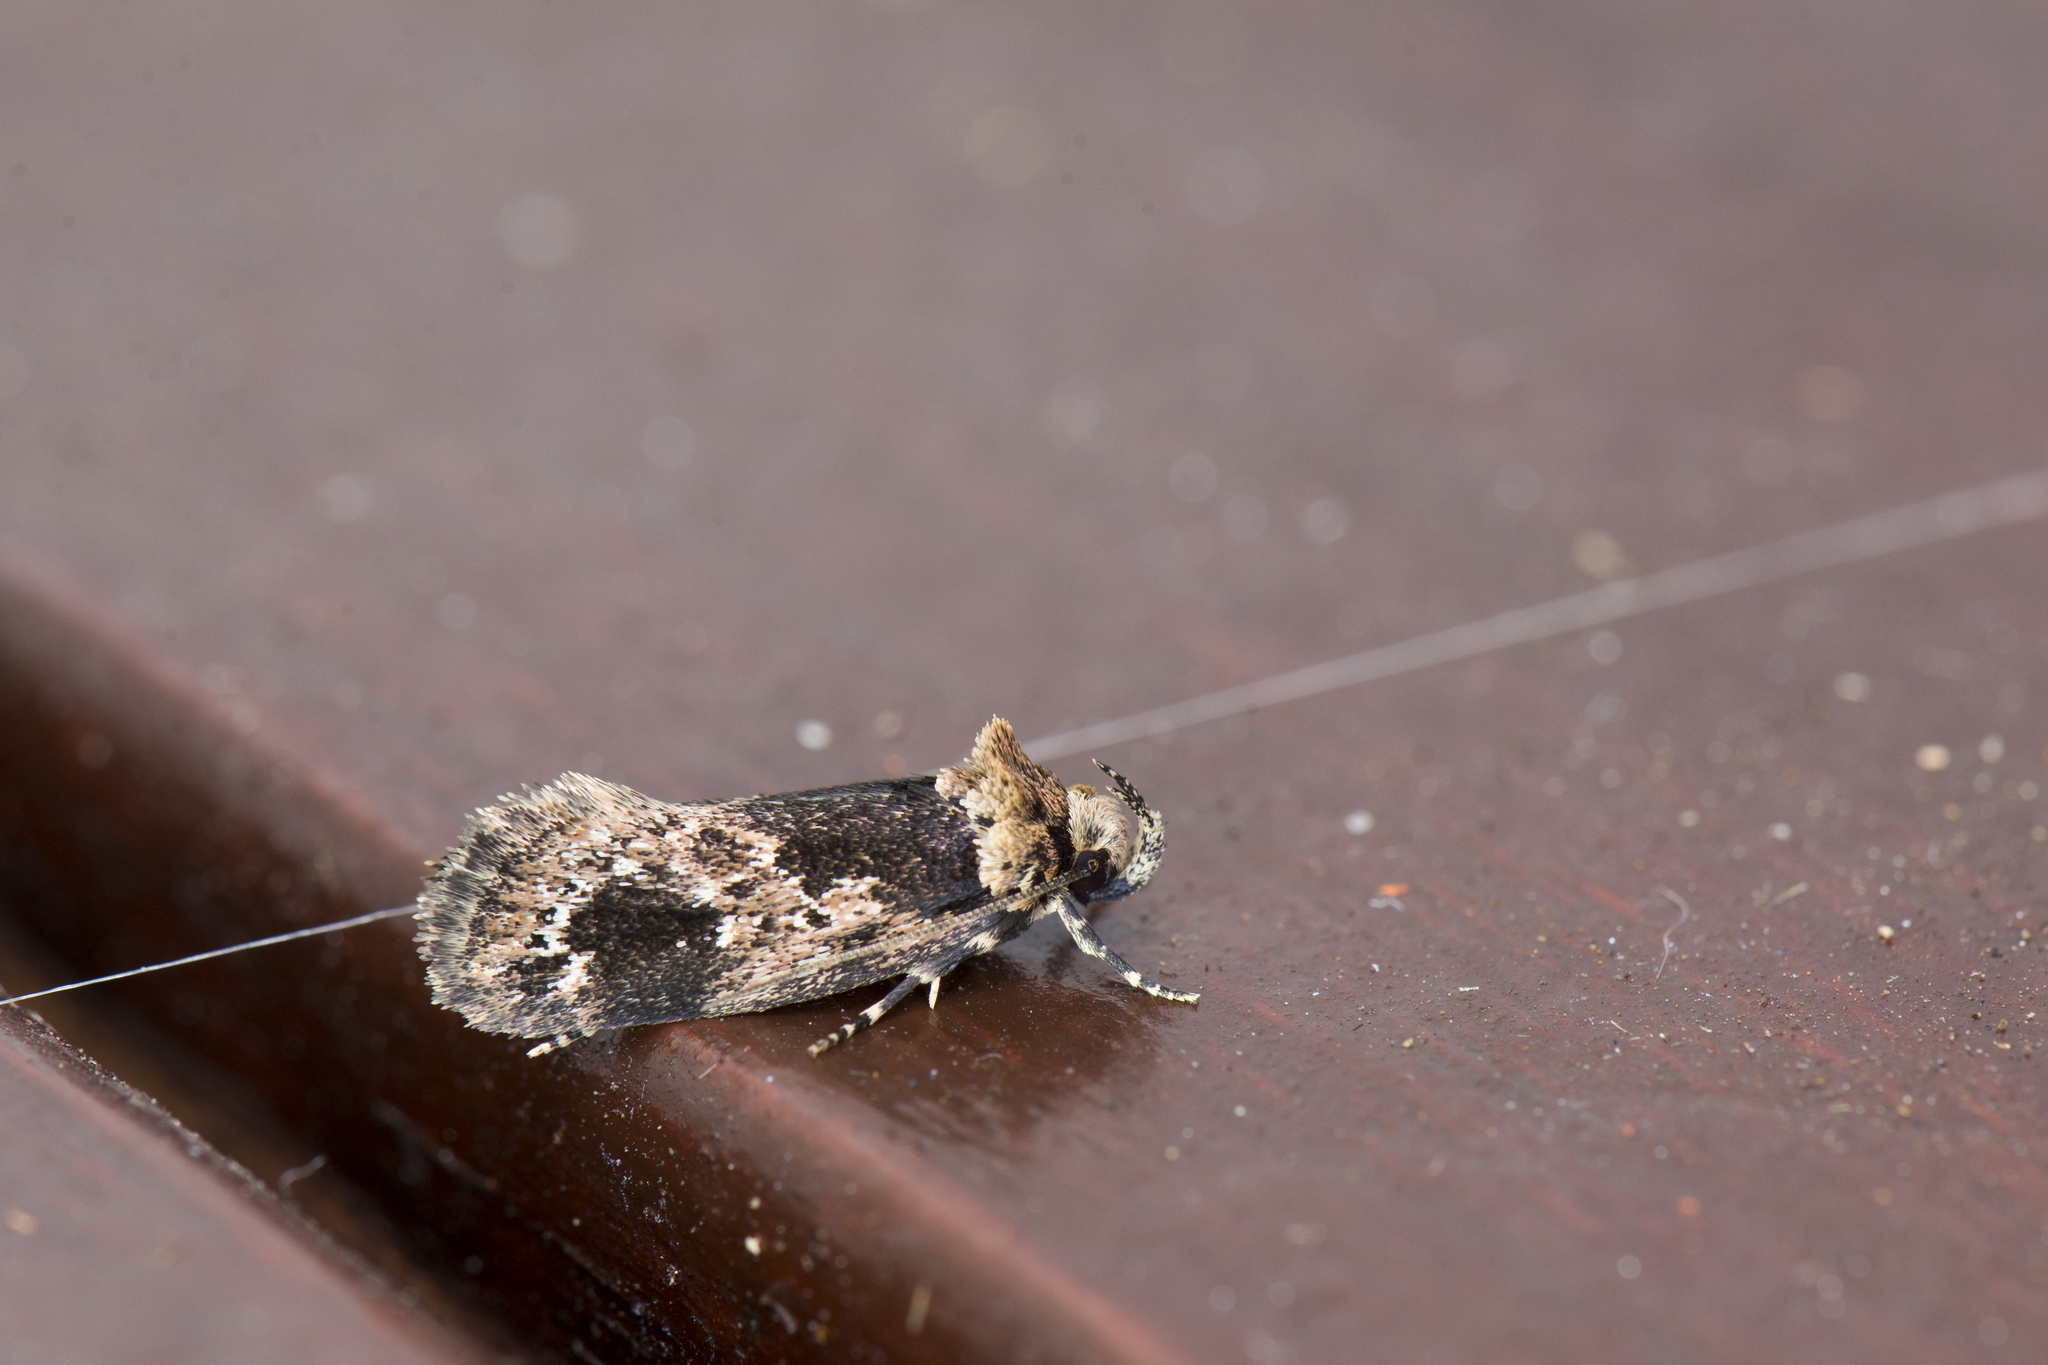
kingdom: Animalia
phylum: Arthropoda
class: Insecta
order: Lepidoptera
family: Oecophoridae
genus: Barea
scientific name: Barea consignatella
